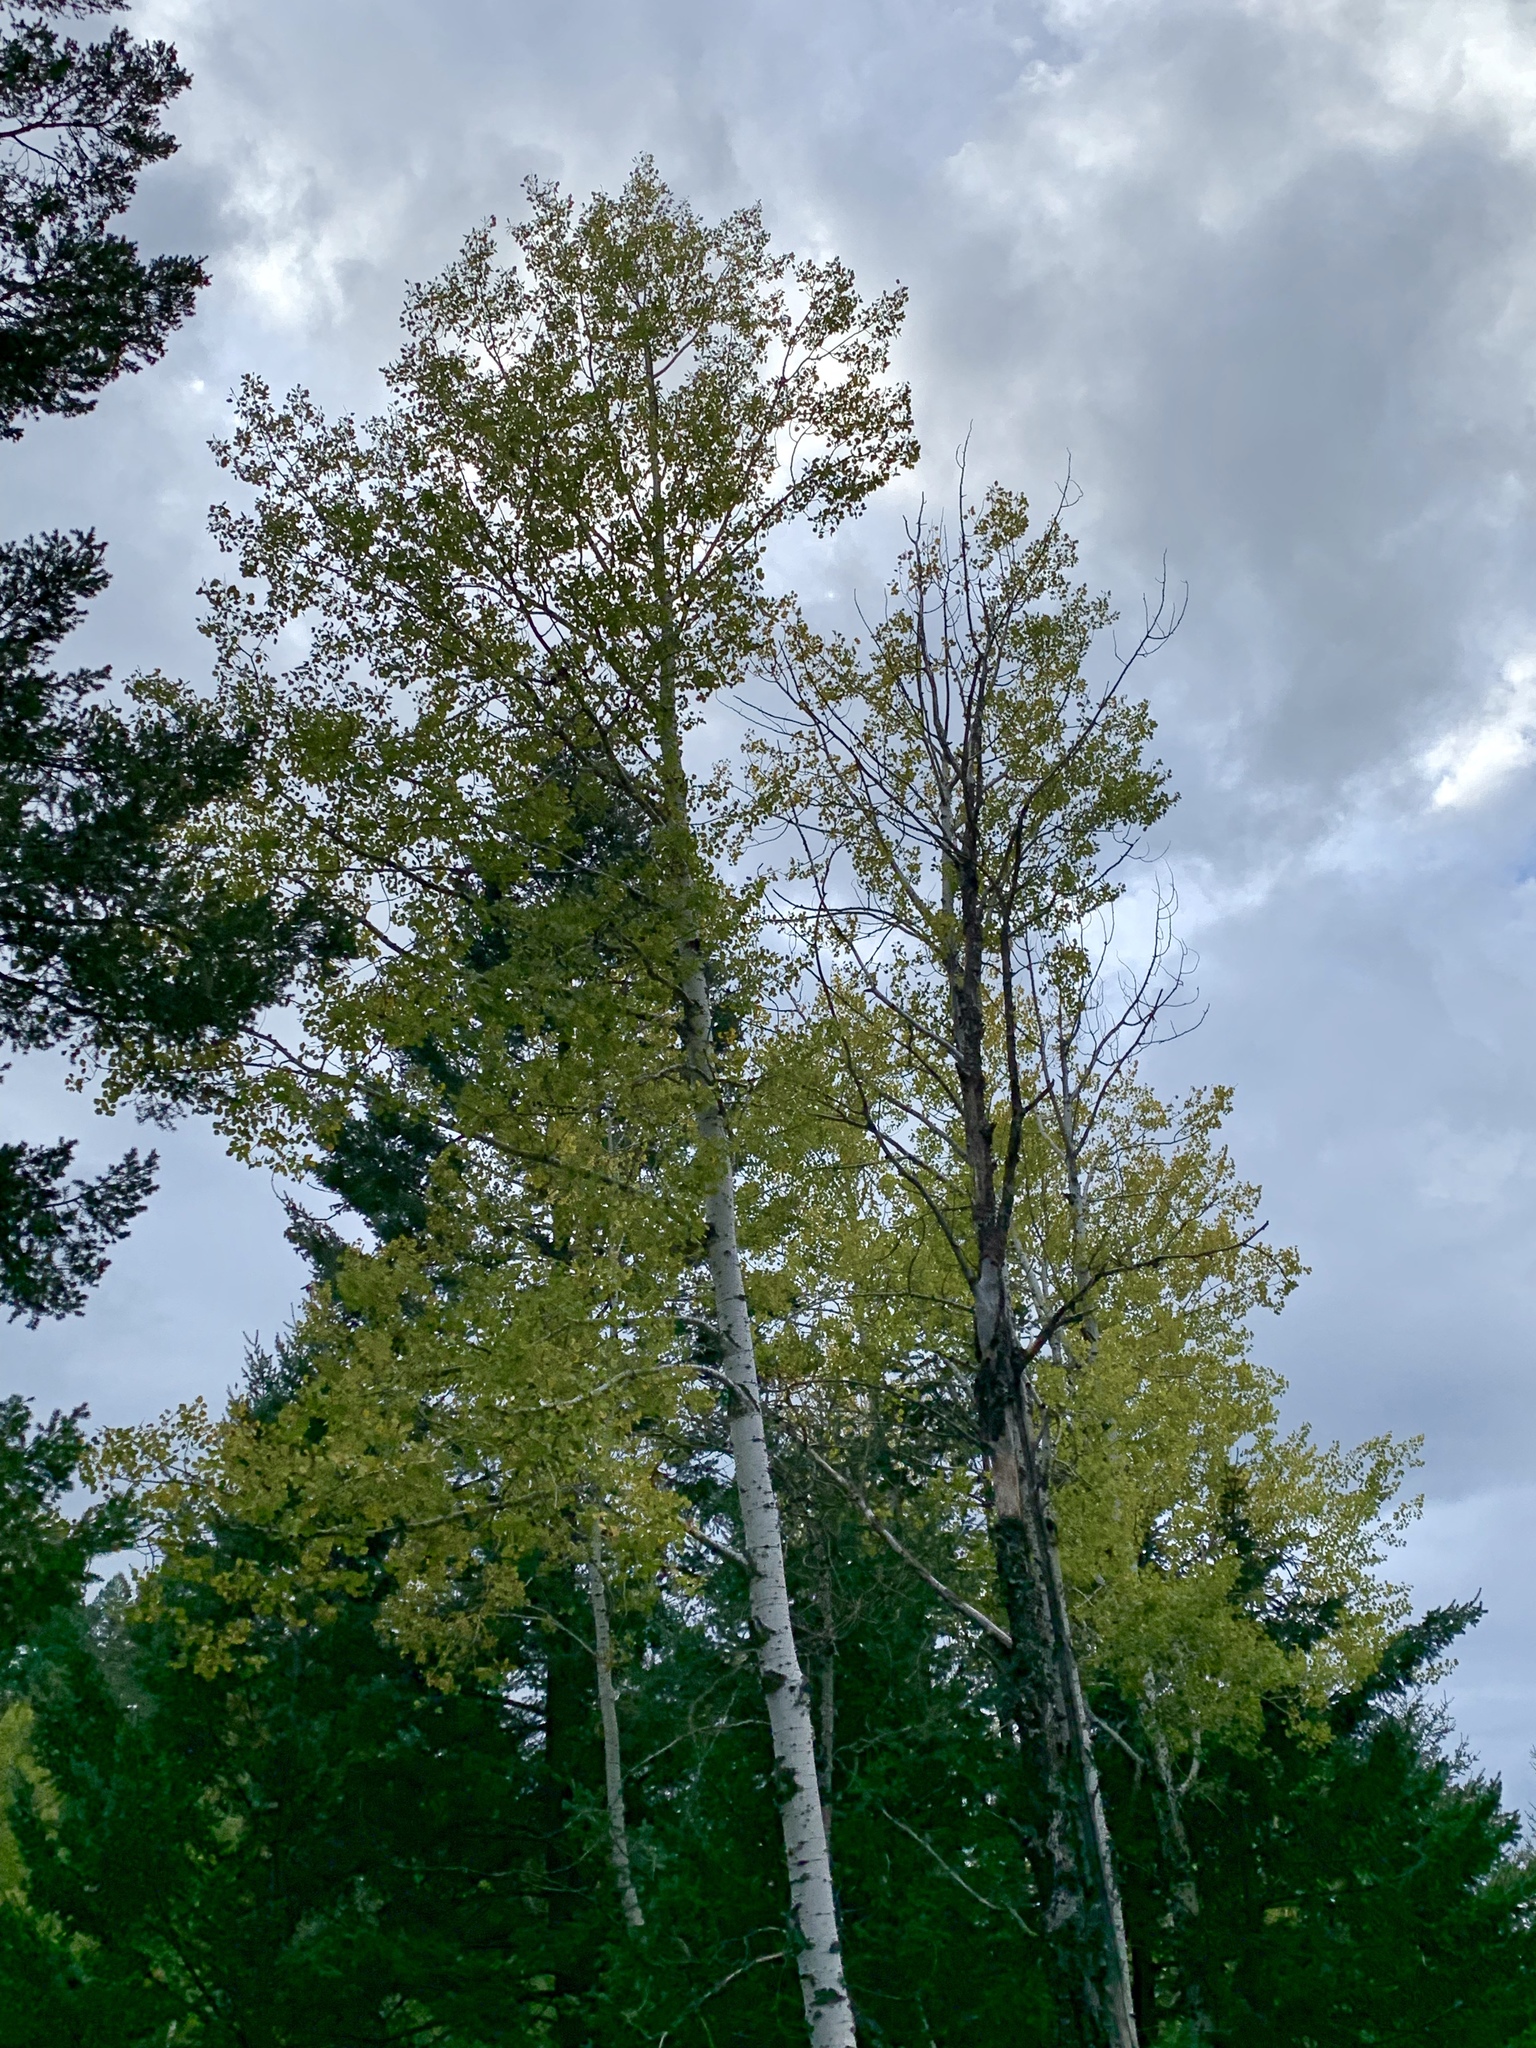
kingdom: Plantae
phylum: Tracheophyta
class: Magnoliopsida
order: Malpighiales
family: Salicaceae
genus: Populus
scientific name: Populus tremuloides
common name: Quaking aspen
